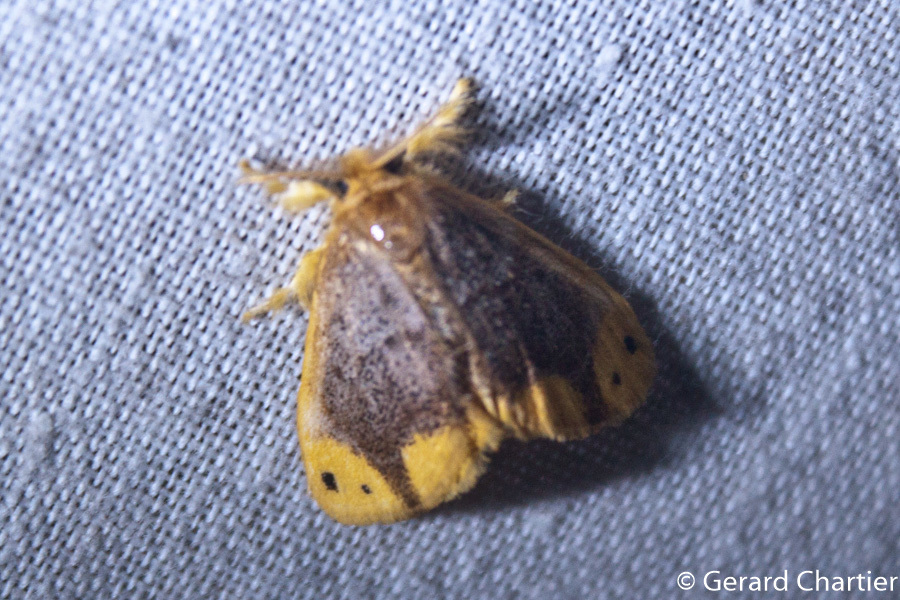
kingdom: Animalia
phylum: Arthropoda
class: Insecta
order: Lepidoptera
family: Erebidae
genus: Arna
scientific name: Arna bipunctapex
